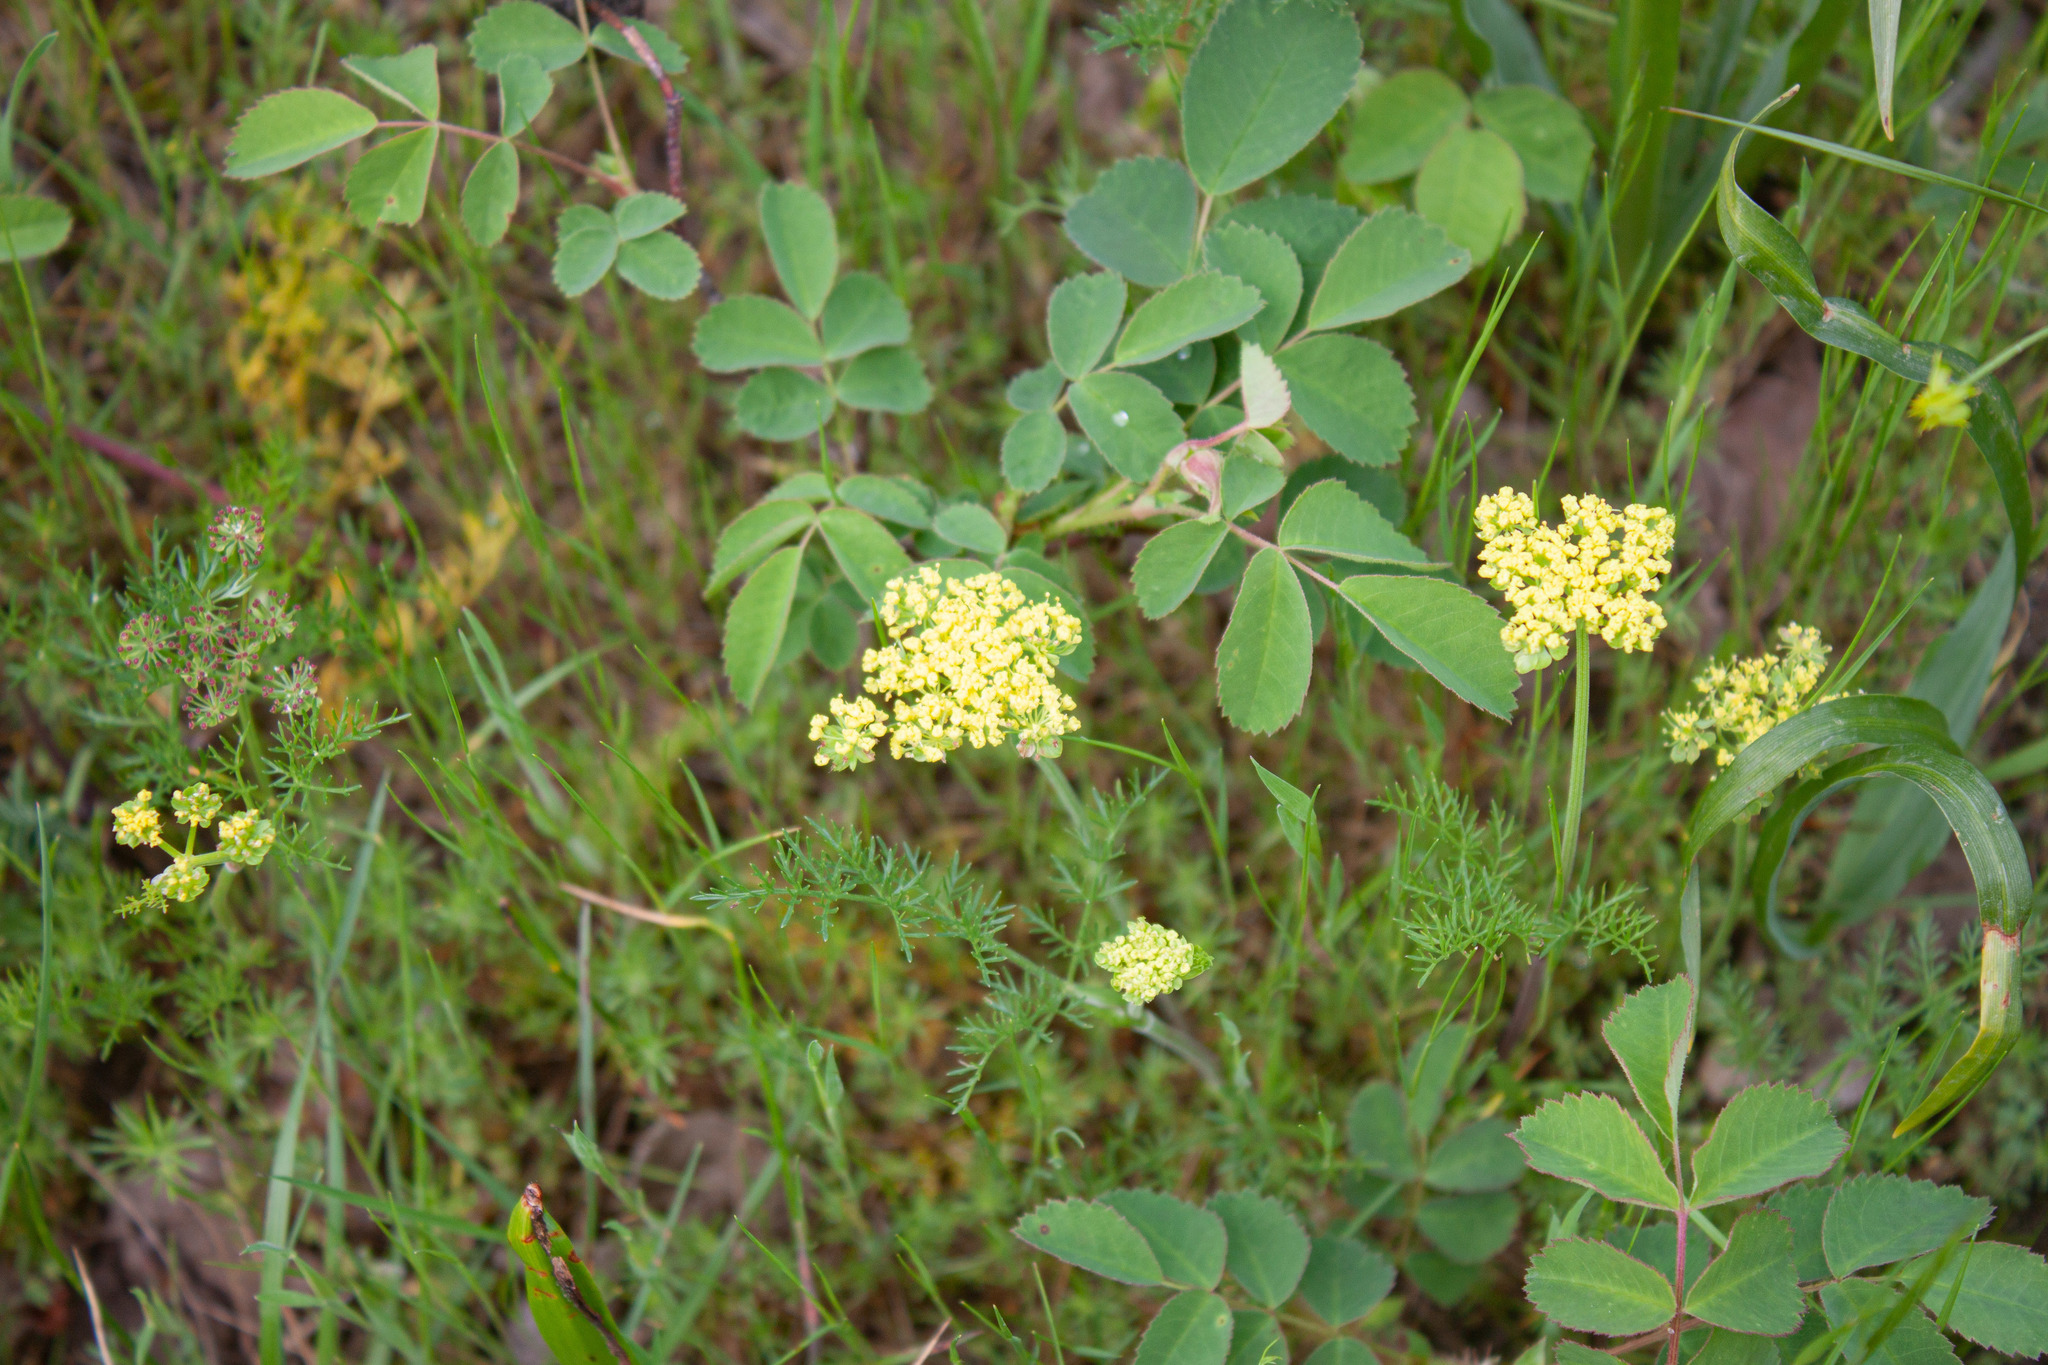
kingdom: Plantae
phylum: Tracheophyta
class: Magnoliopsida
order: Apiales
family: Apiaceae
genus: Lomatium
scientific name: Lomatium utriculatum
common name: Fine-leaf desert-parsley
